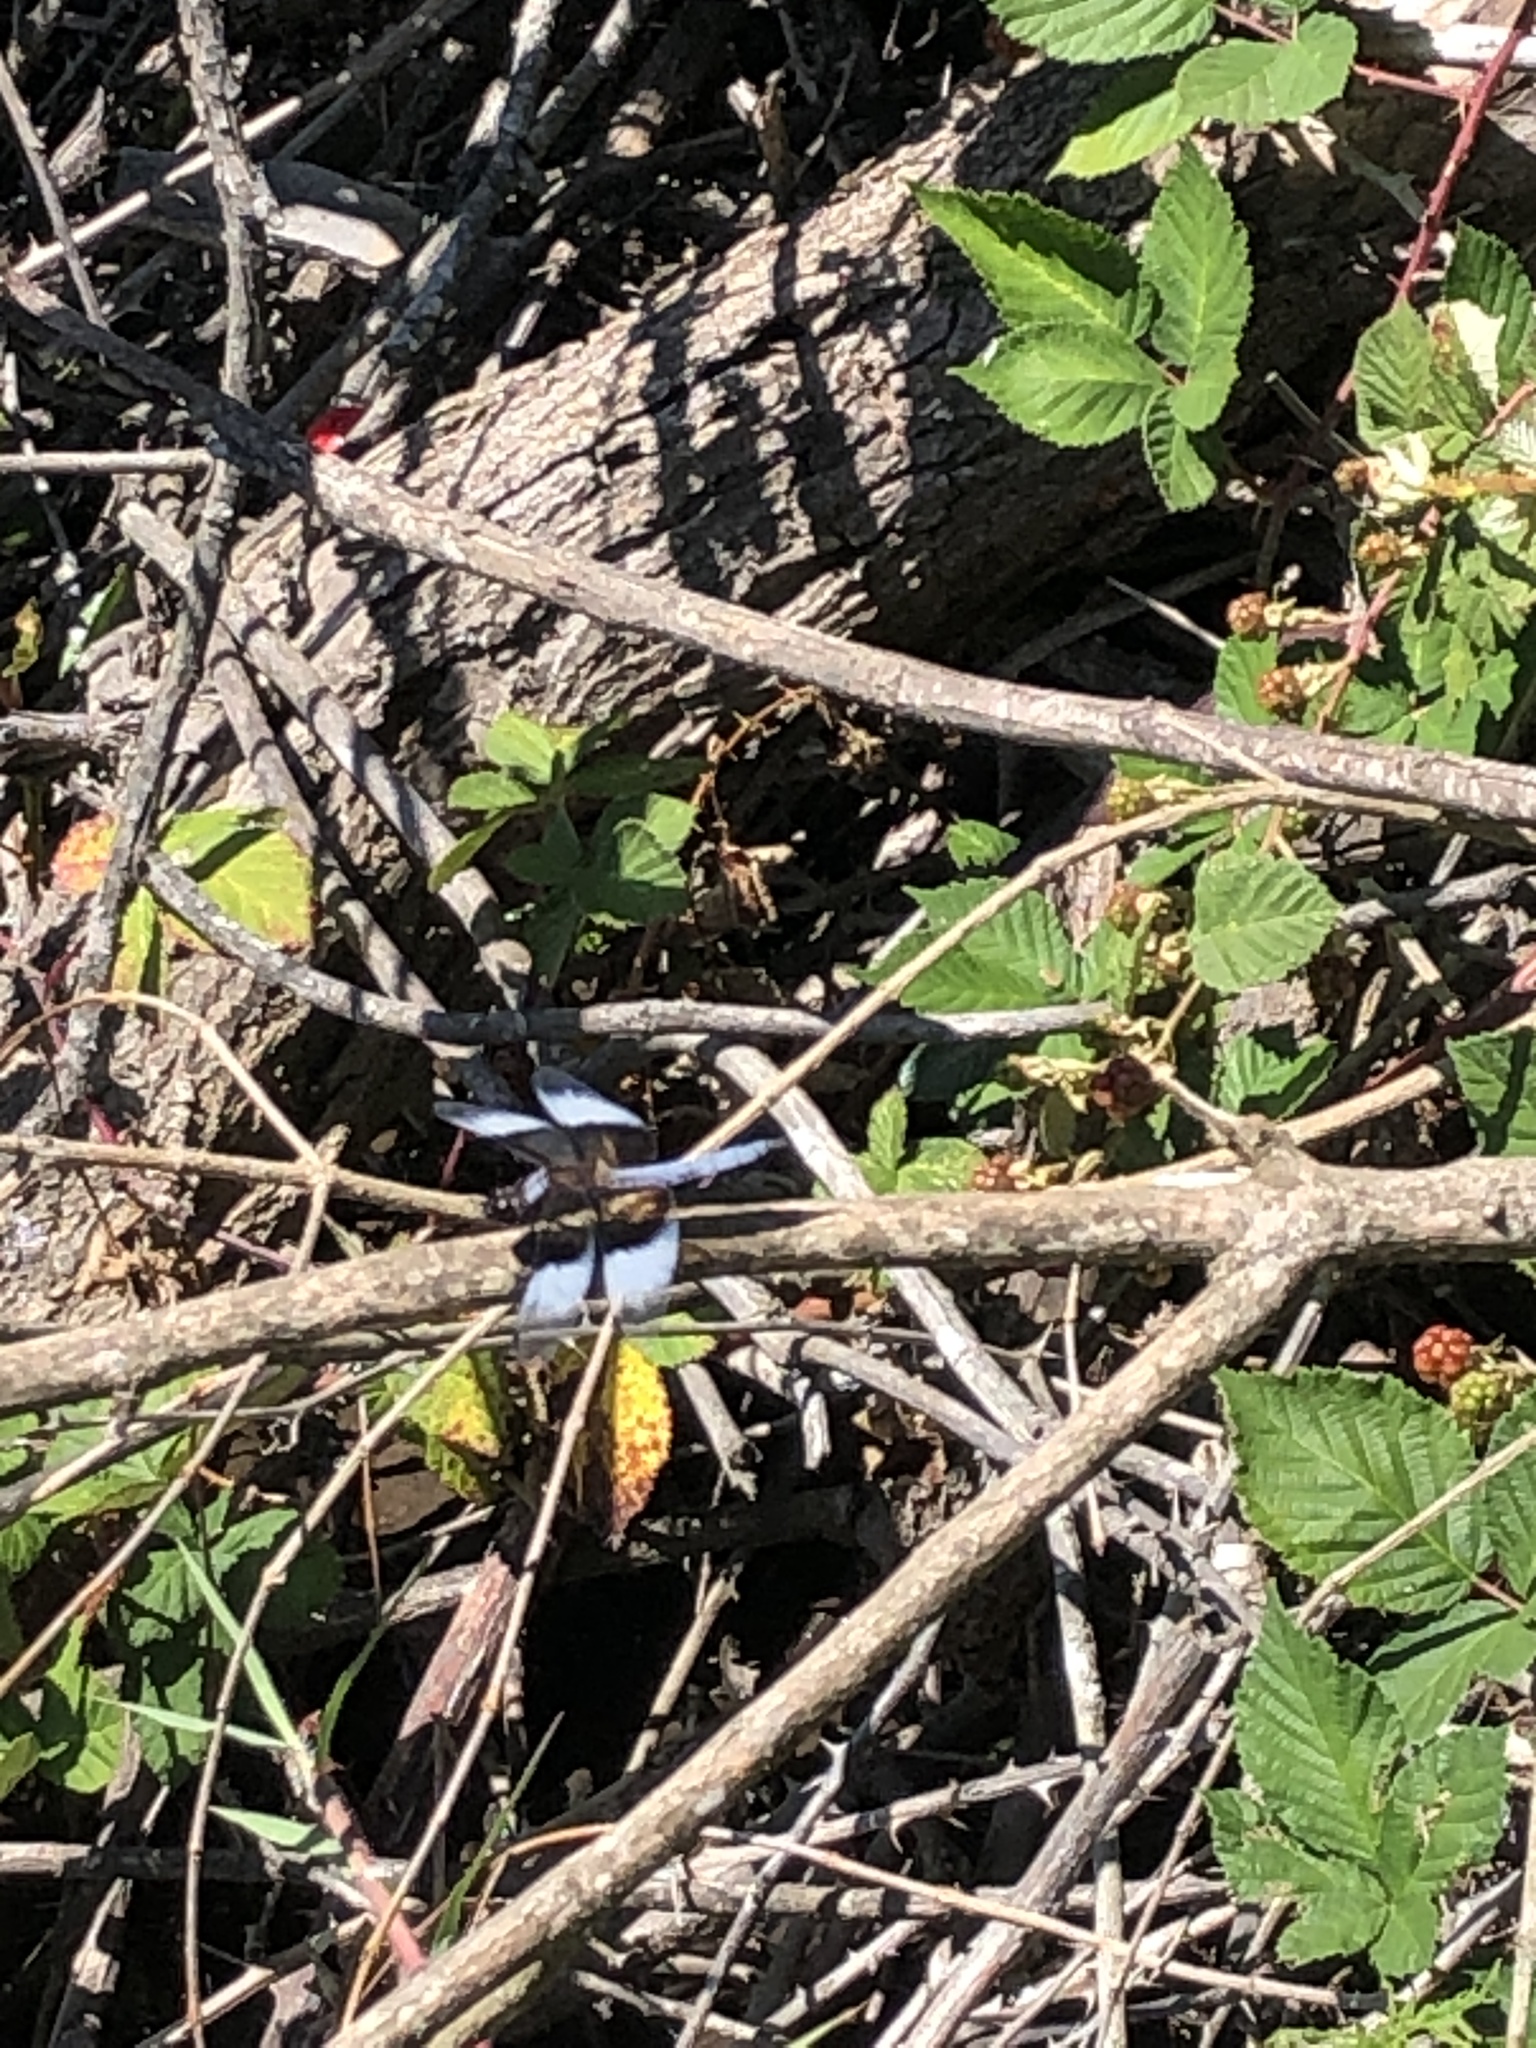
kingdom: Animalia
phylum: Arthropoda
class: Insecta
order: Odonata
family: Libellulidae
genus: Libellula
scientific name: Libellula luctuosa
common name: Widow skimmer
